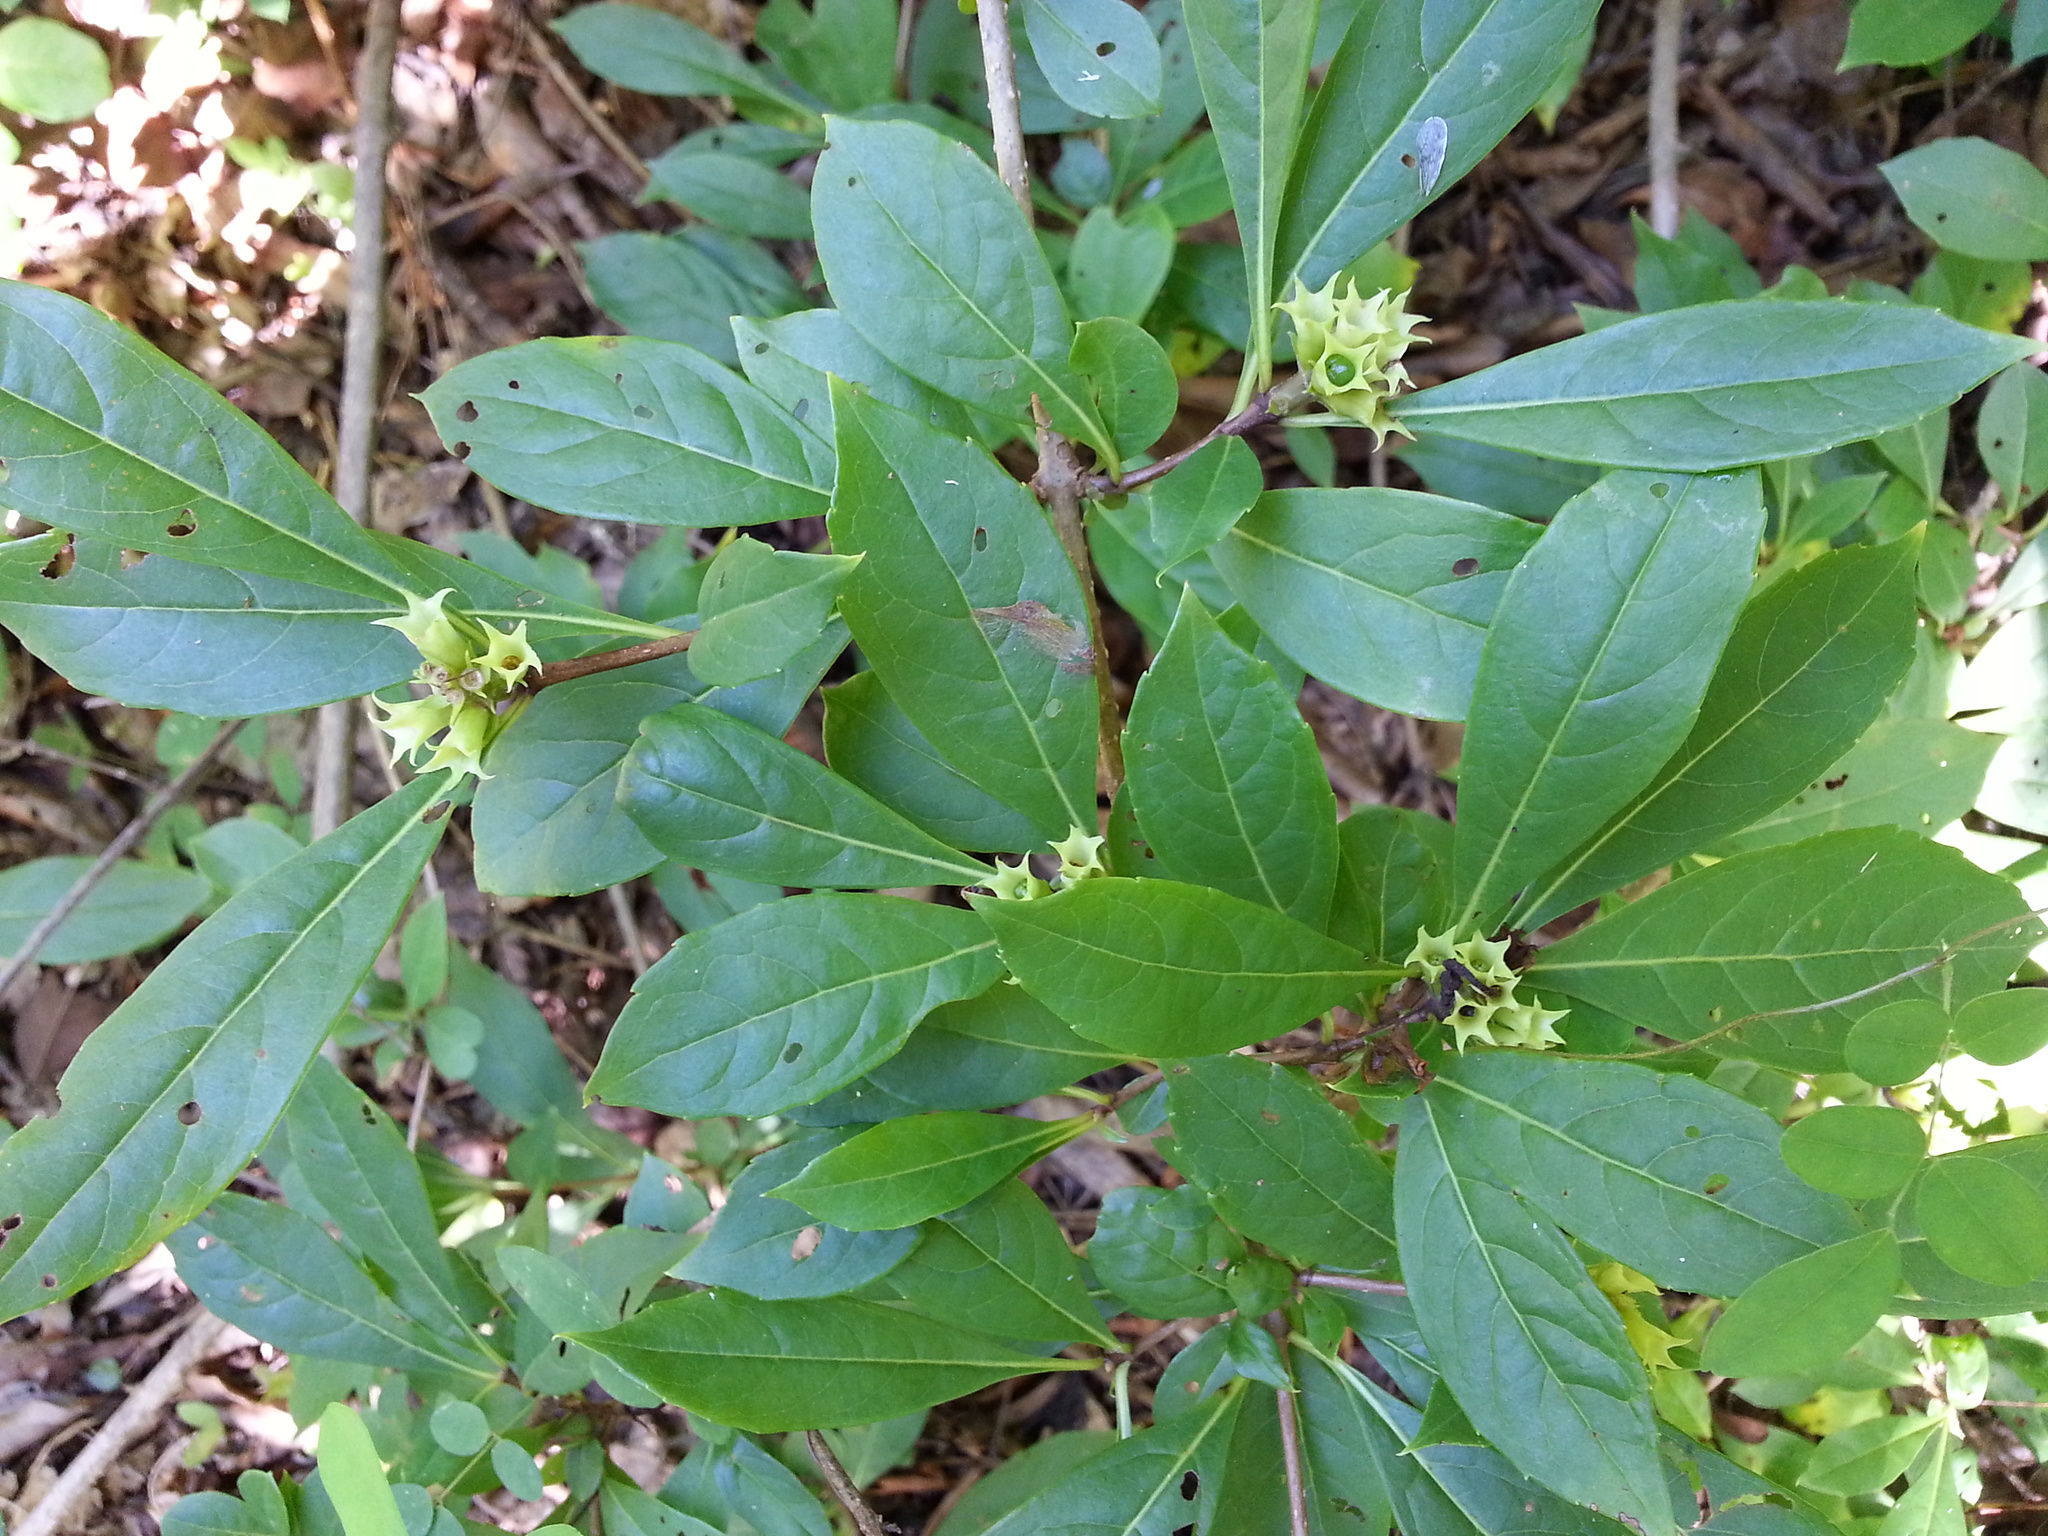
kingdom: Plantae
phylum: Tracheophyta
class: Magnoliopsida
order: Lamiales
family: Lamiaceae
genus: Rotheca
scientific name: Rotheca microphylla
